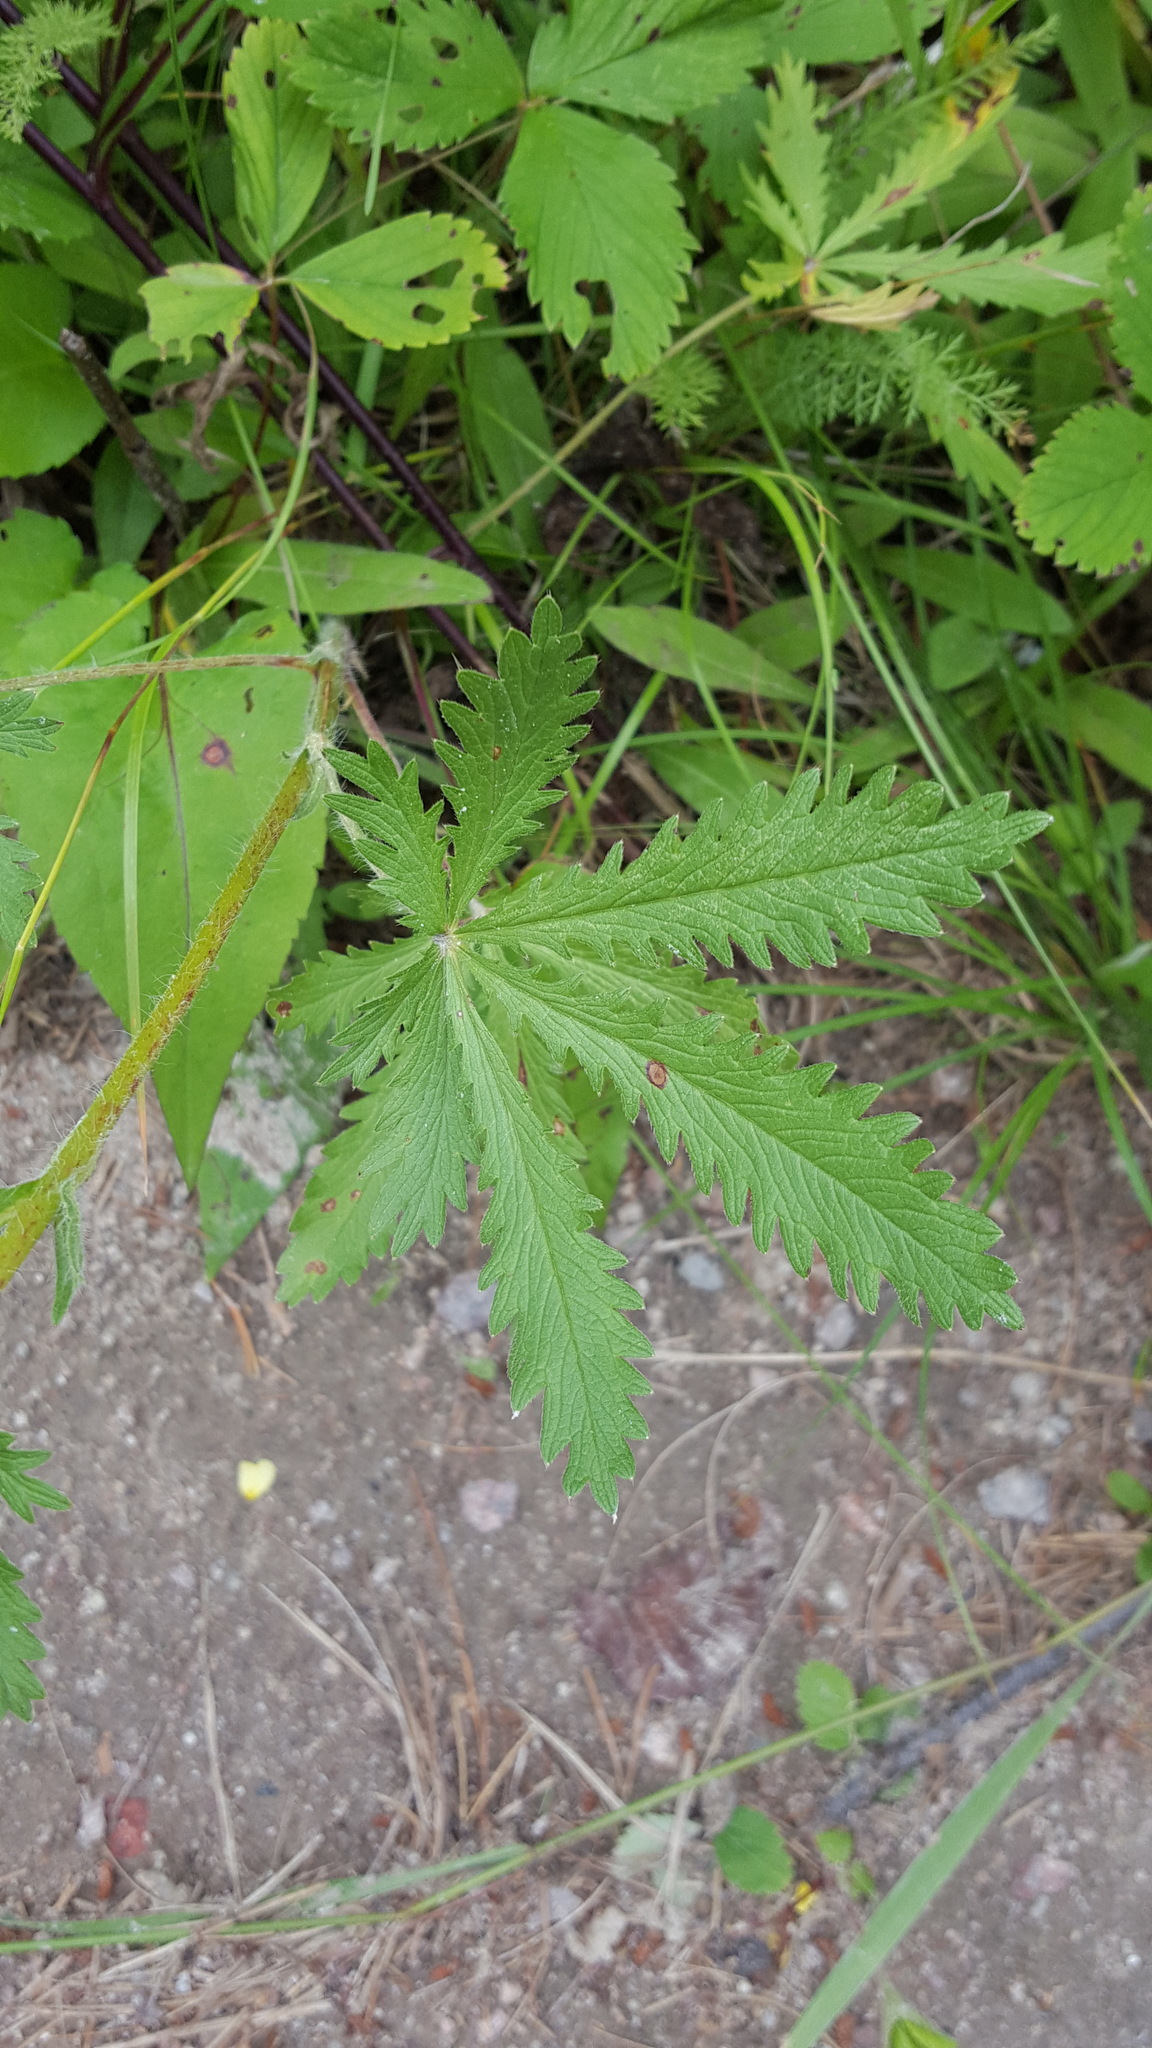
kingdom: Plantae
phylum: Tracheophyta
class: Magnoliopsida
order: Rosales
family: Rosaceae
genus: Potentilla
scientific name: Potentilla recta
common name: Sulphur cinquefoil
